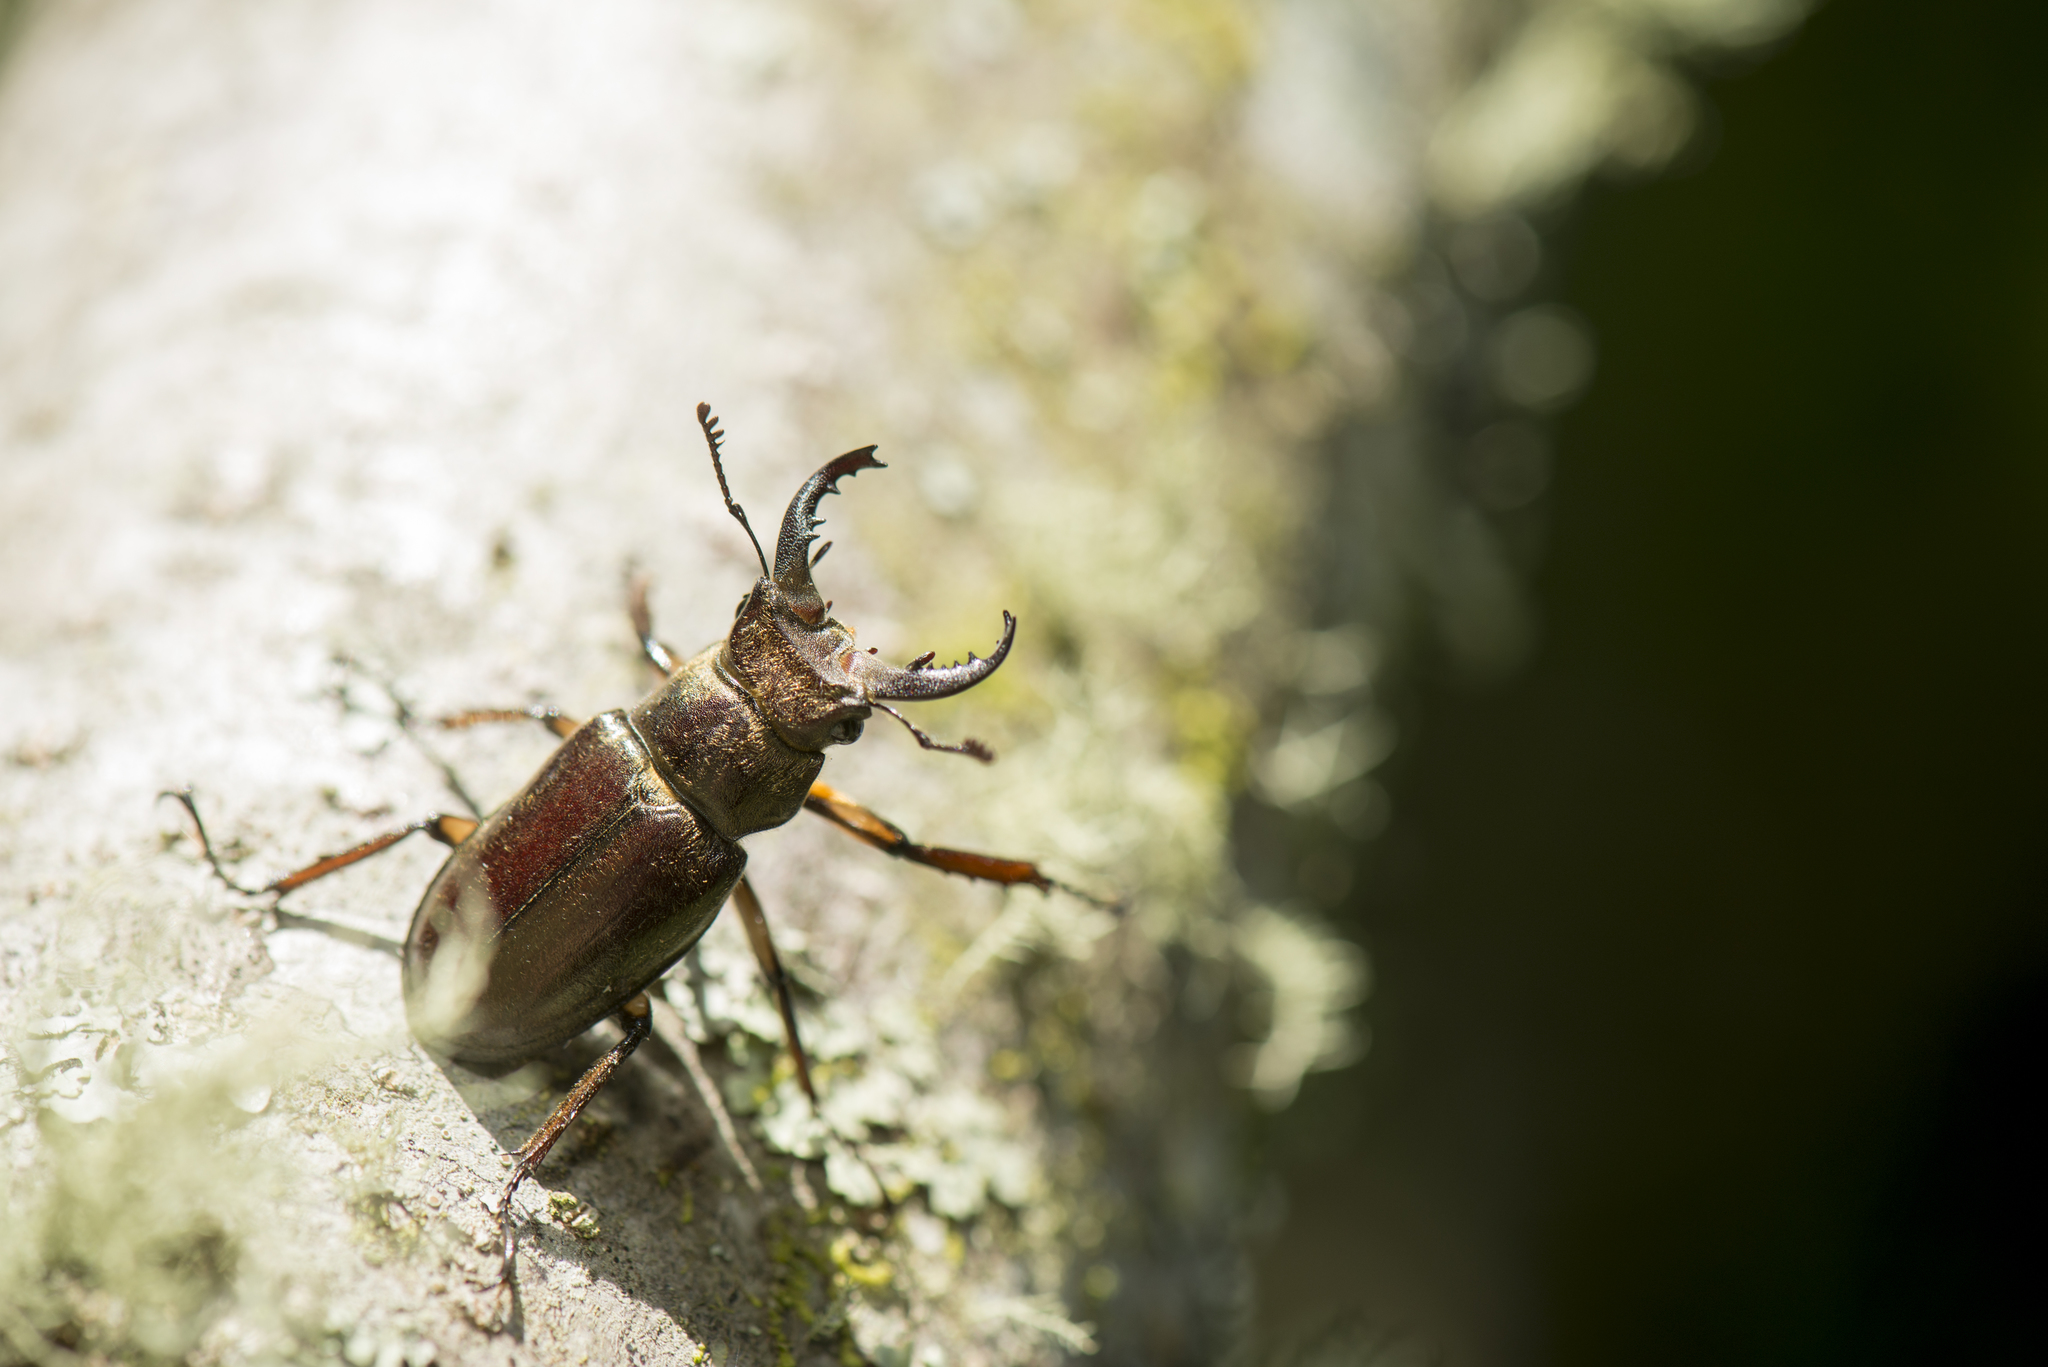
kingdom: Animalia
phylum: Arthropoda
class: Insecta
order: Coleoptera
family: Lucanidae
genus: Lucanus
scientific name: Lucanus kurosawai
